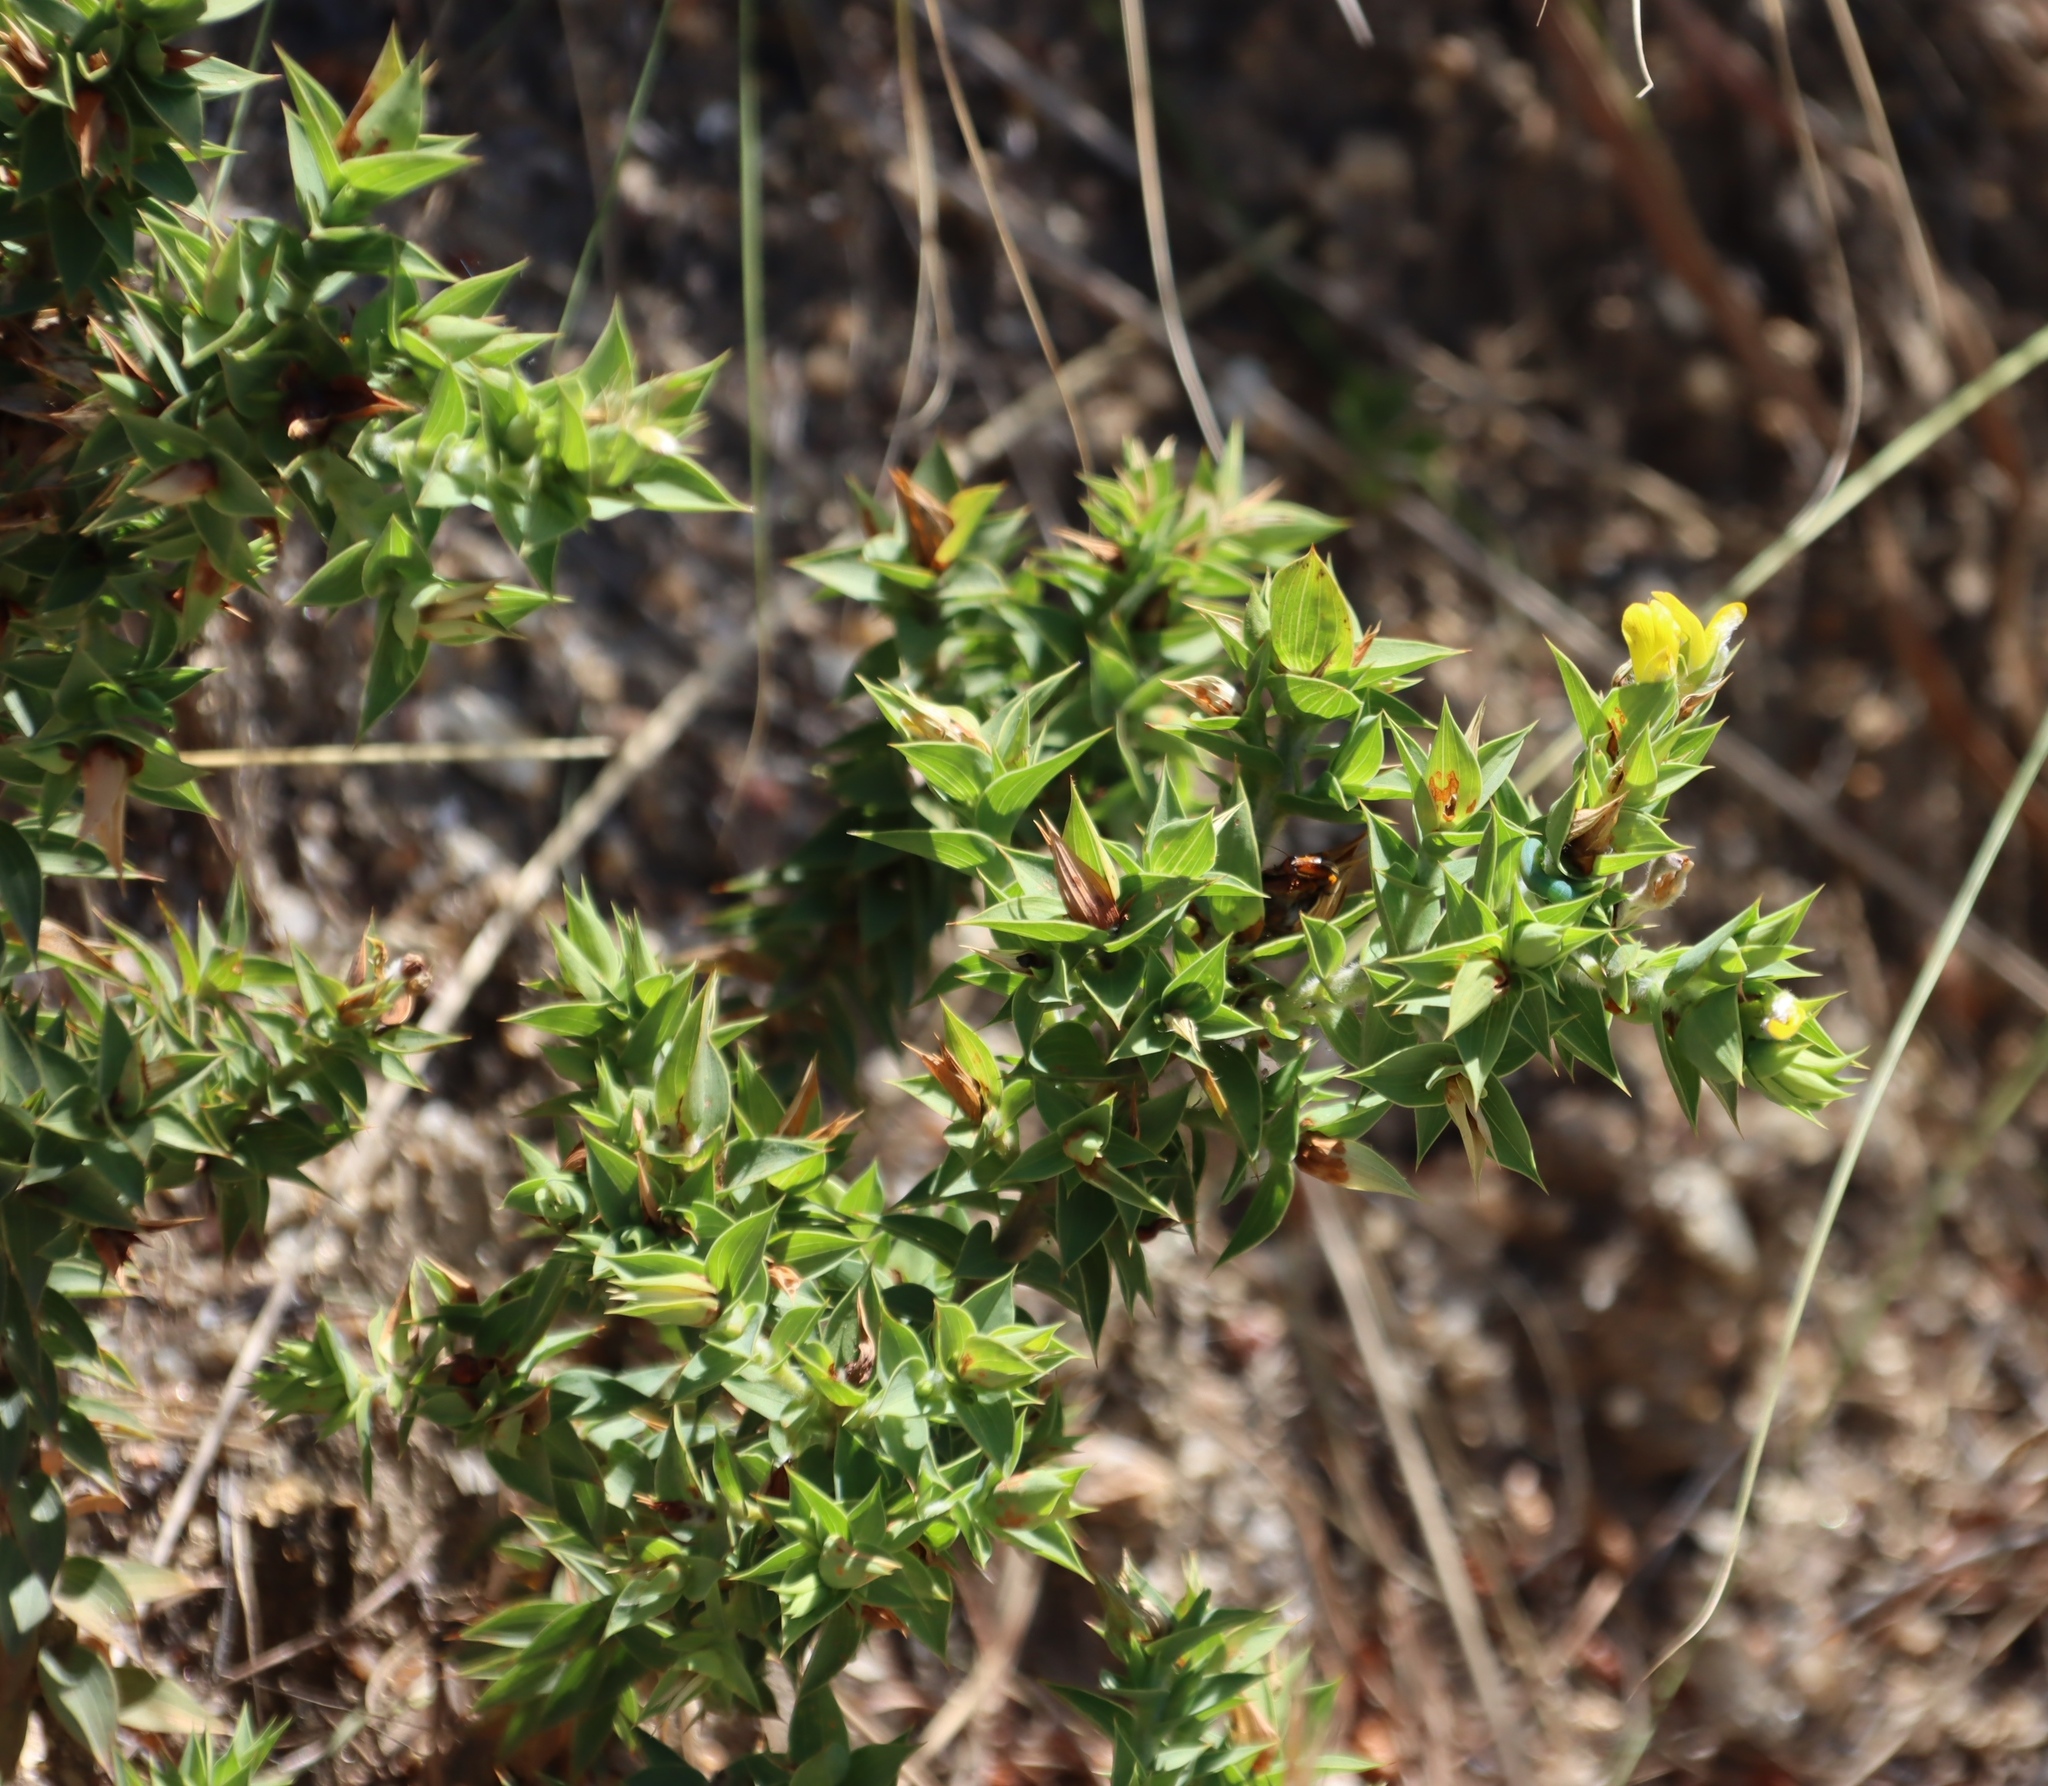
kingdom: Plantae
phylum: Tracheophyta
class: Magnoliopsida
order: Fabales
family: Fabaceae
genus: Aspalathus
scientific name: Aspalathus cordata
